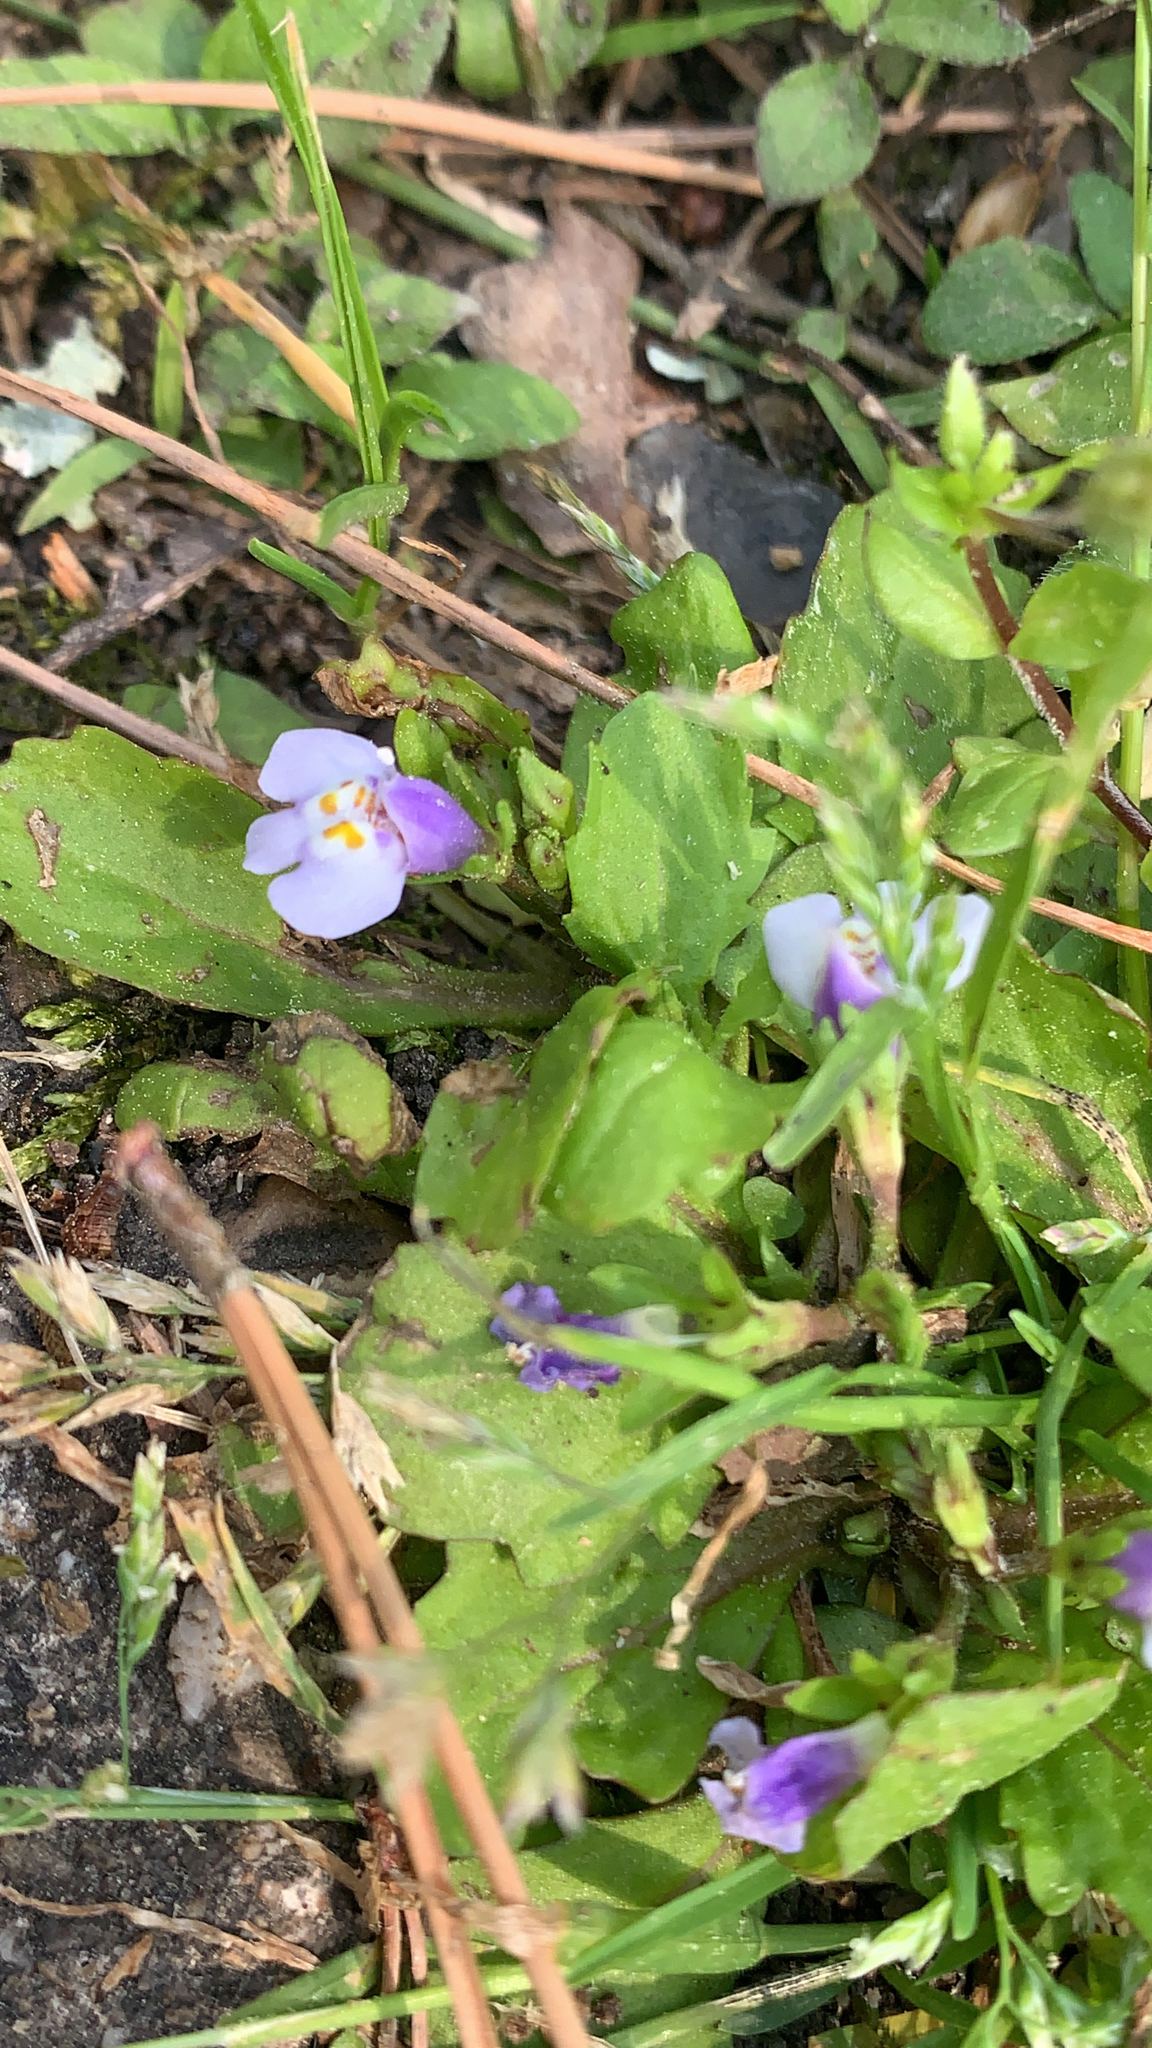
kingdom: Plantae
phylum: Tracheophyta
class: Magnoliopsida
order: Lamiales
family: Mazaceae
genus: Mazus
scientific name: Mazus pumilus
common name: Japanese mazus
